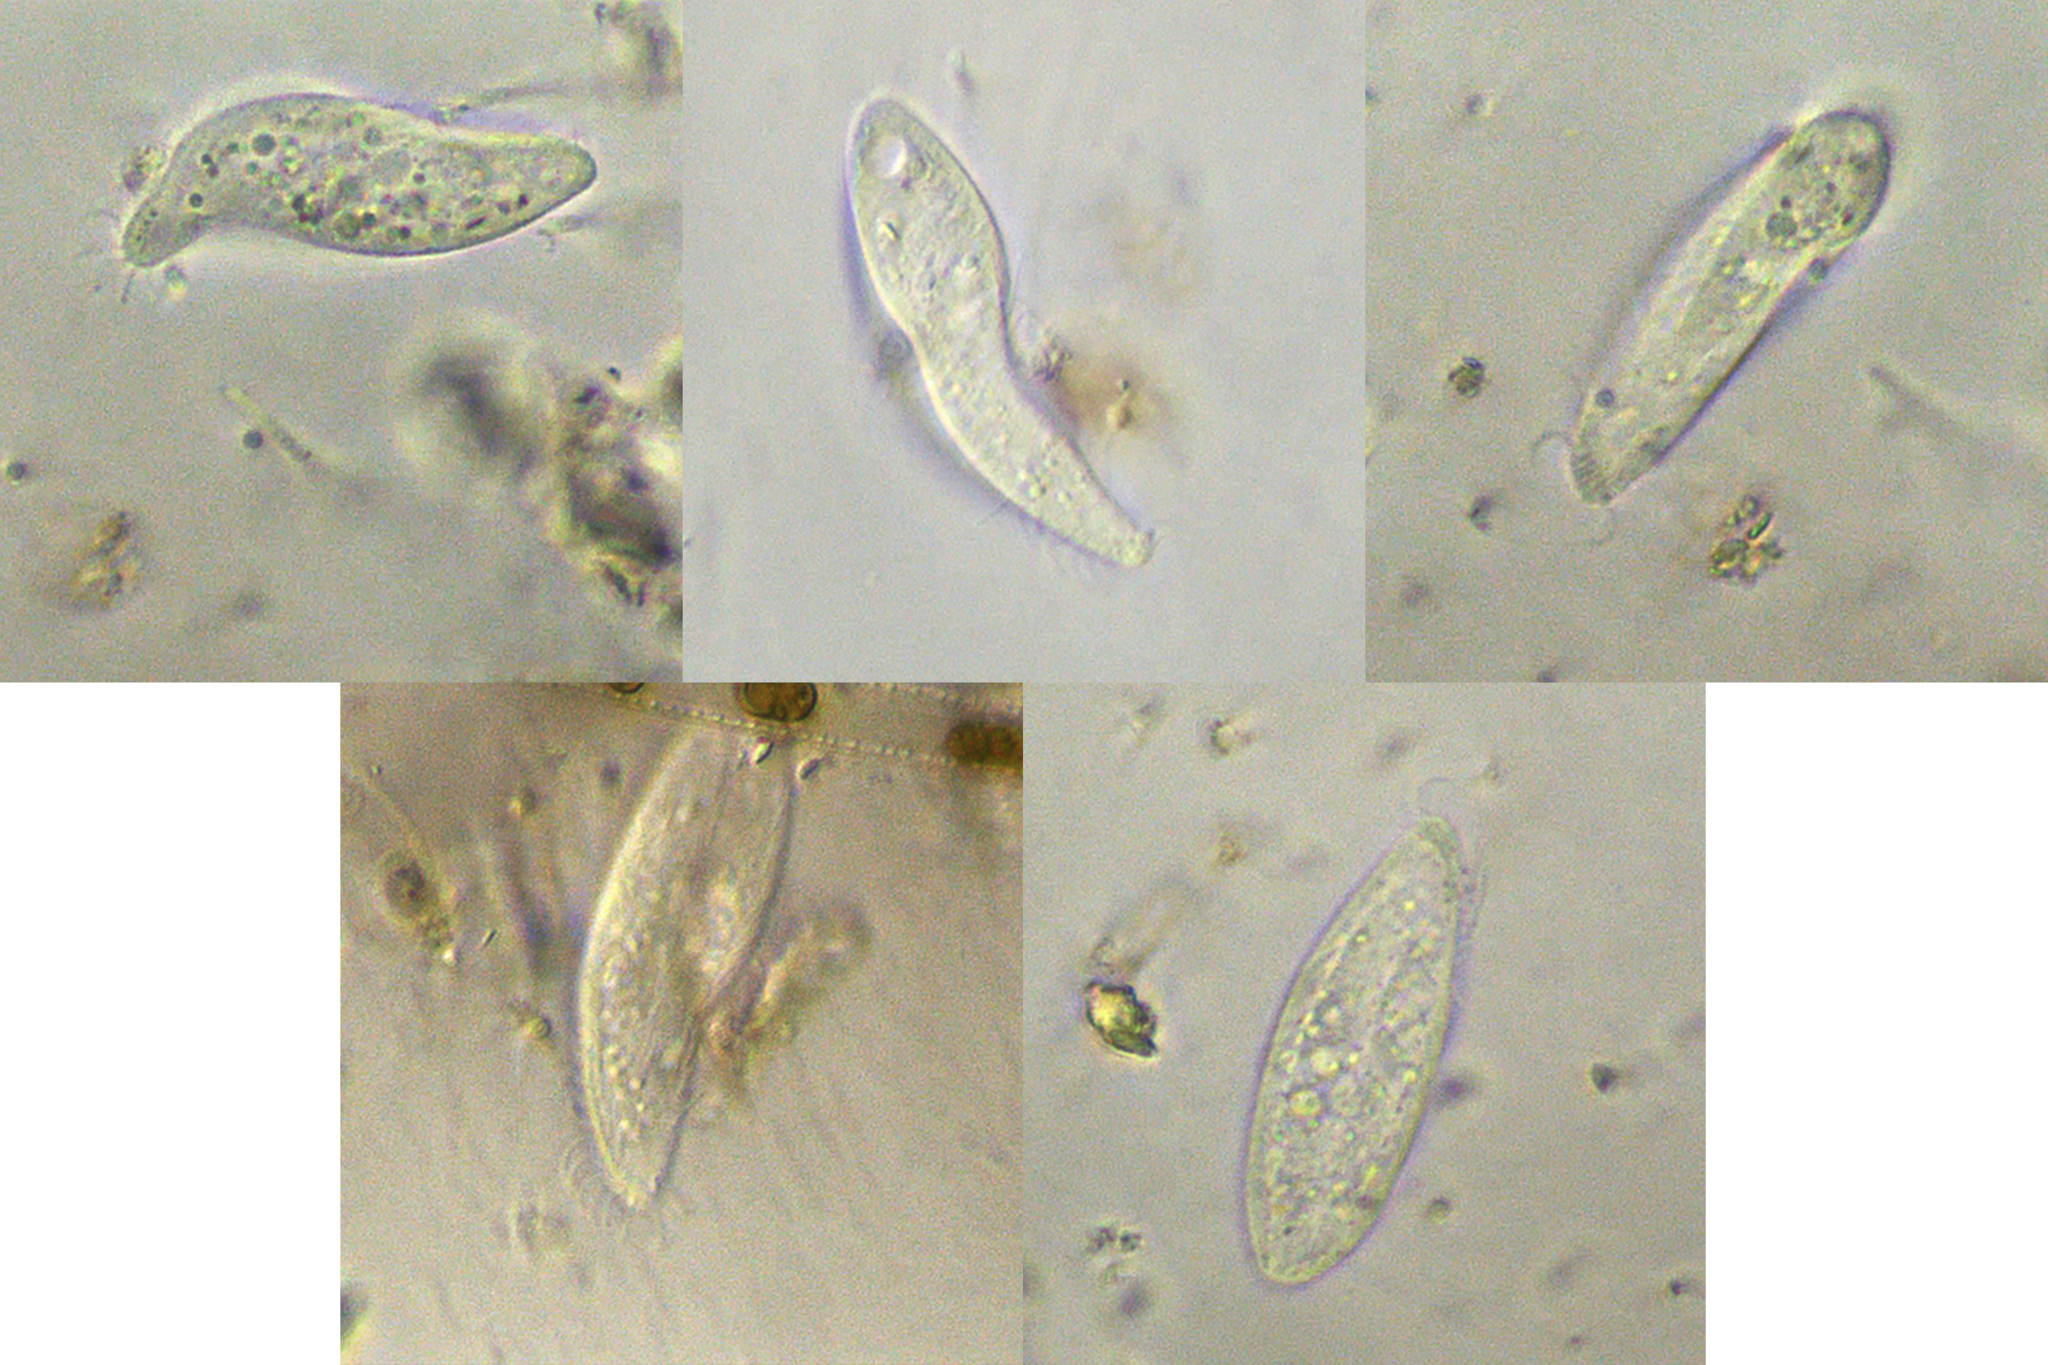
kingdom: Chromista
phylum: Ciliophora
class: Gymnostomatea
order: Pleurostomatida
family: Litonotidae
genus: Acineria
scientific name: Acineria uncinata
